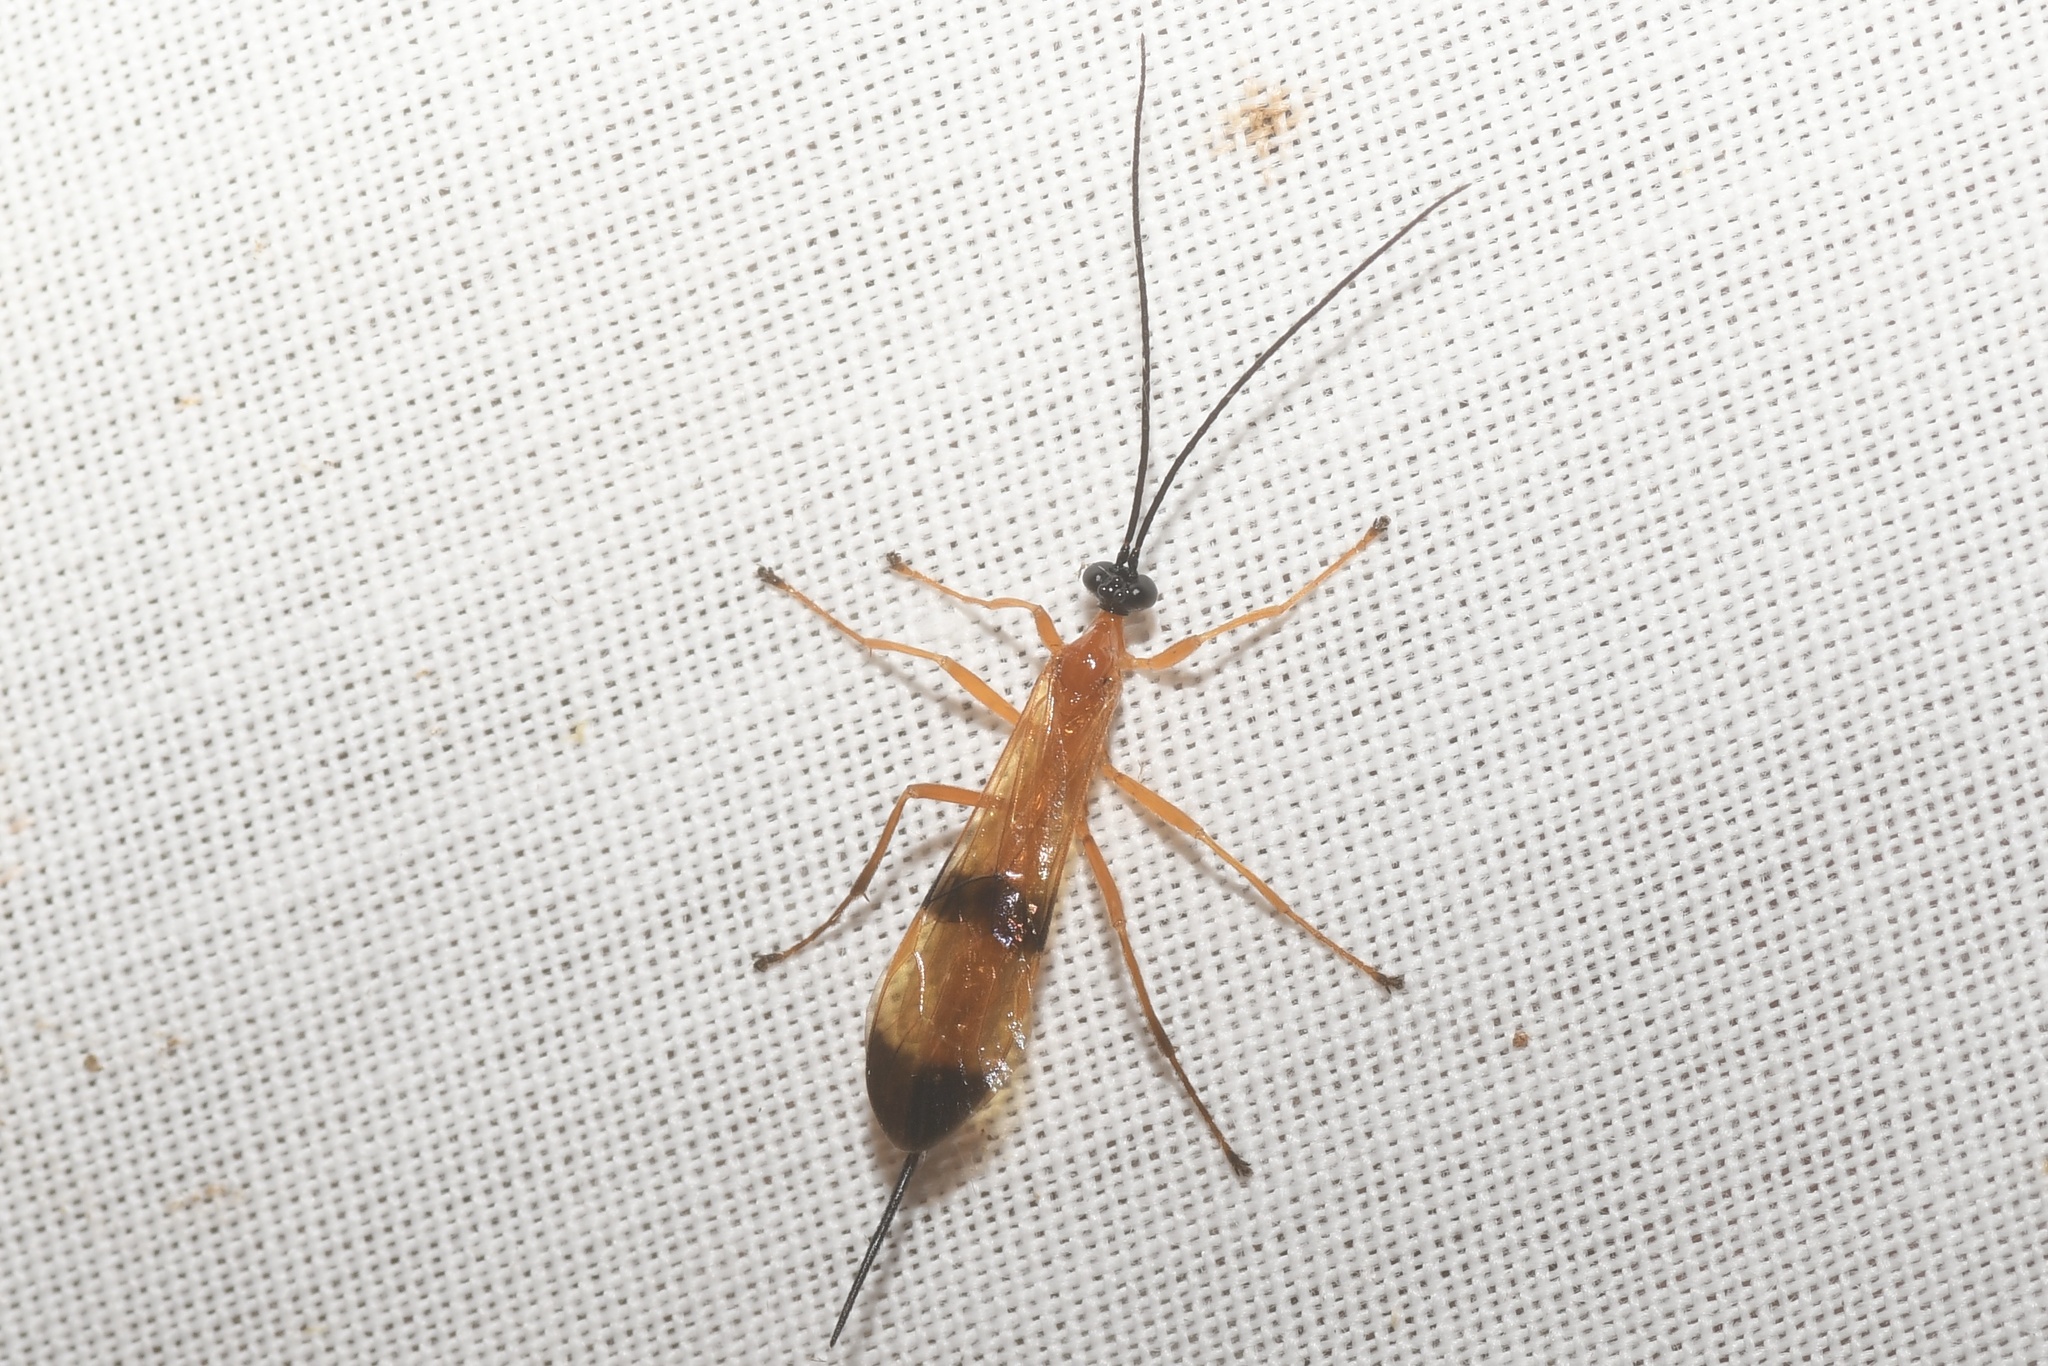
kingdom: Animalia
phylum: Arthropoda
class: Insecta
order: Hymenoptera
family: Ichneumonidae
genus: Acrotaphus
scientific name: Acrotaphus wiltii
